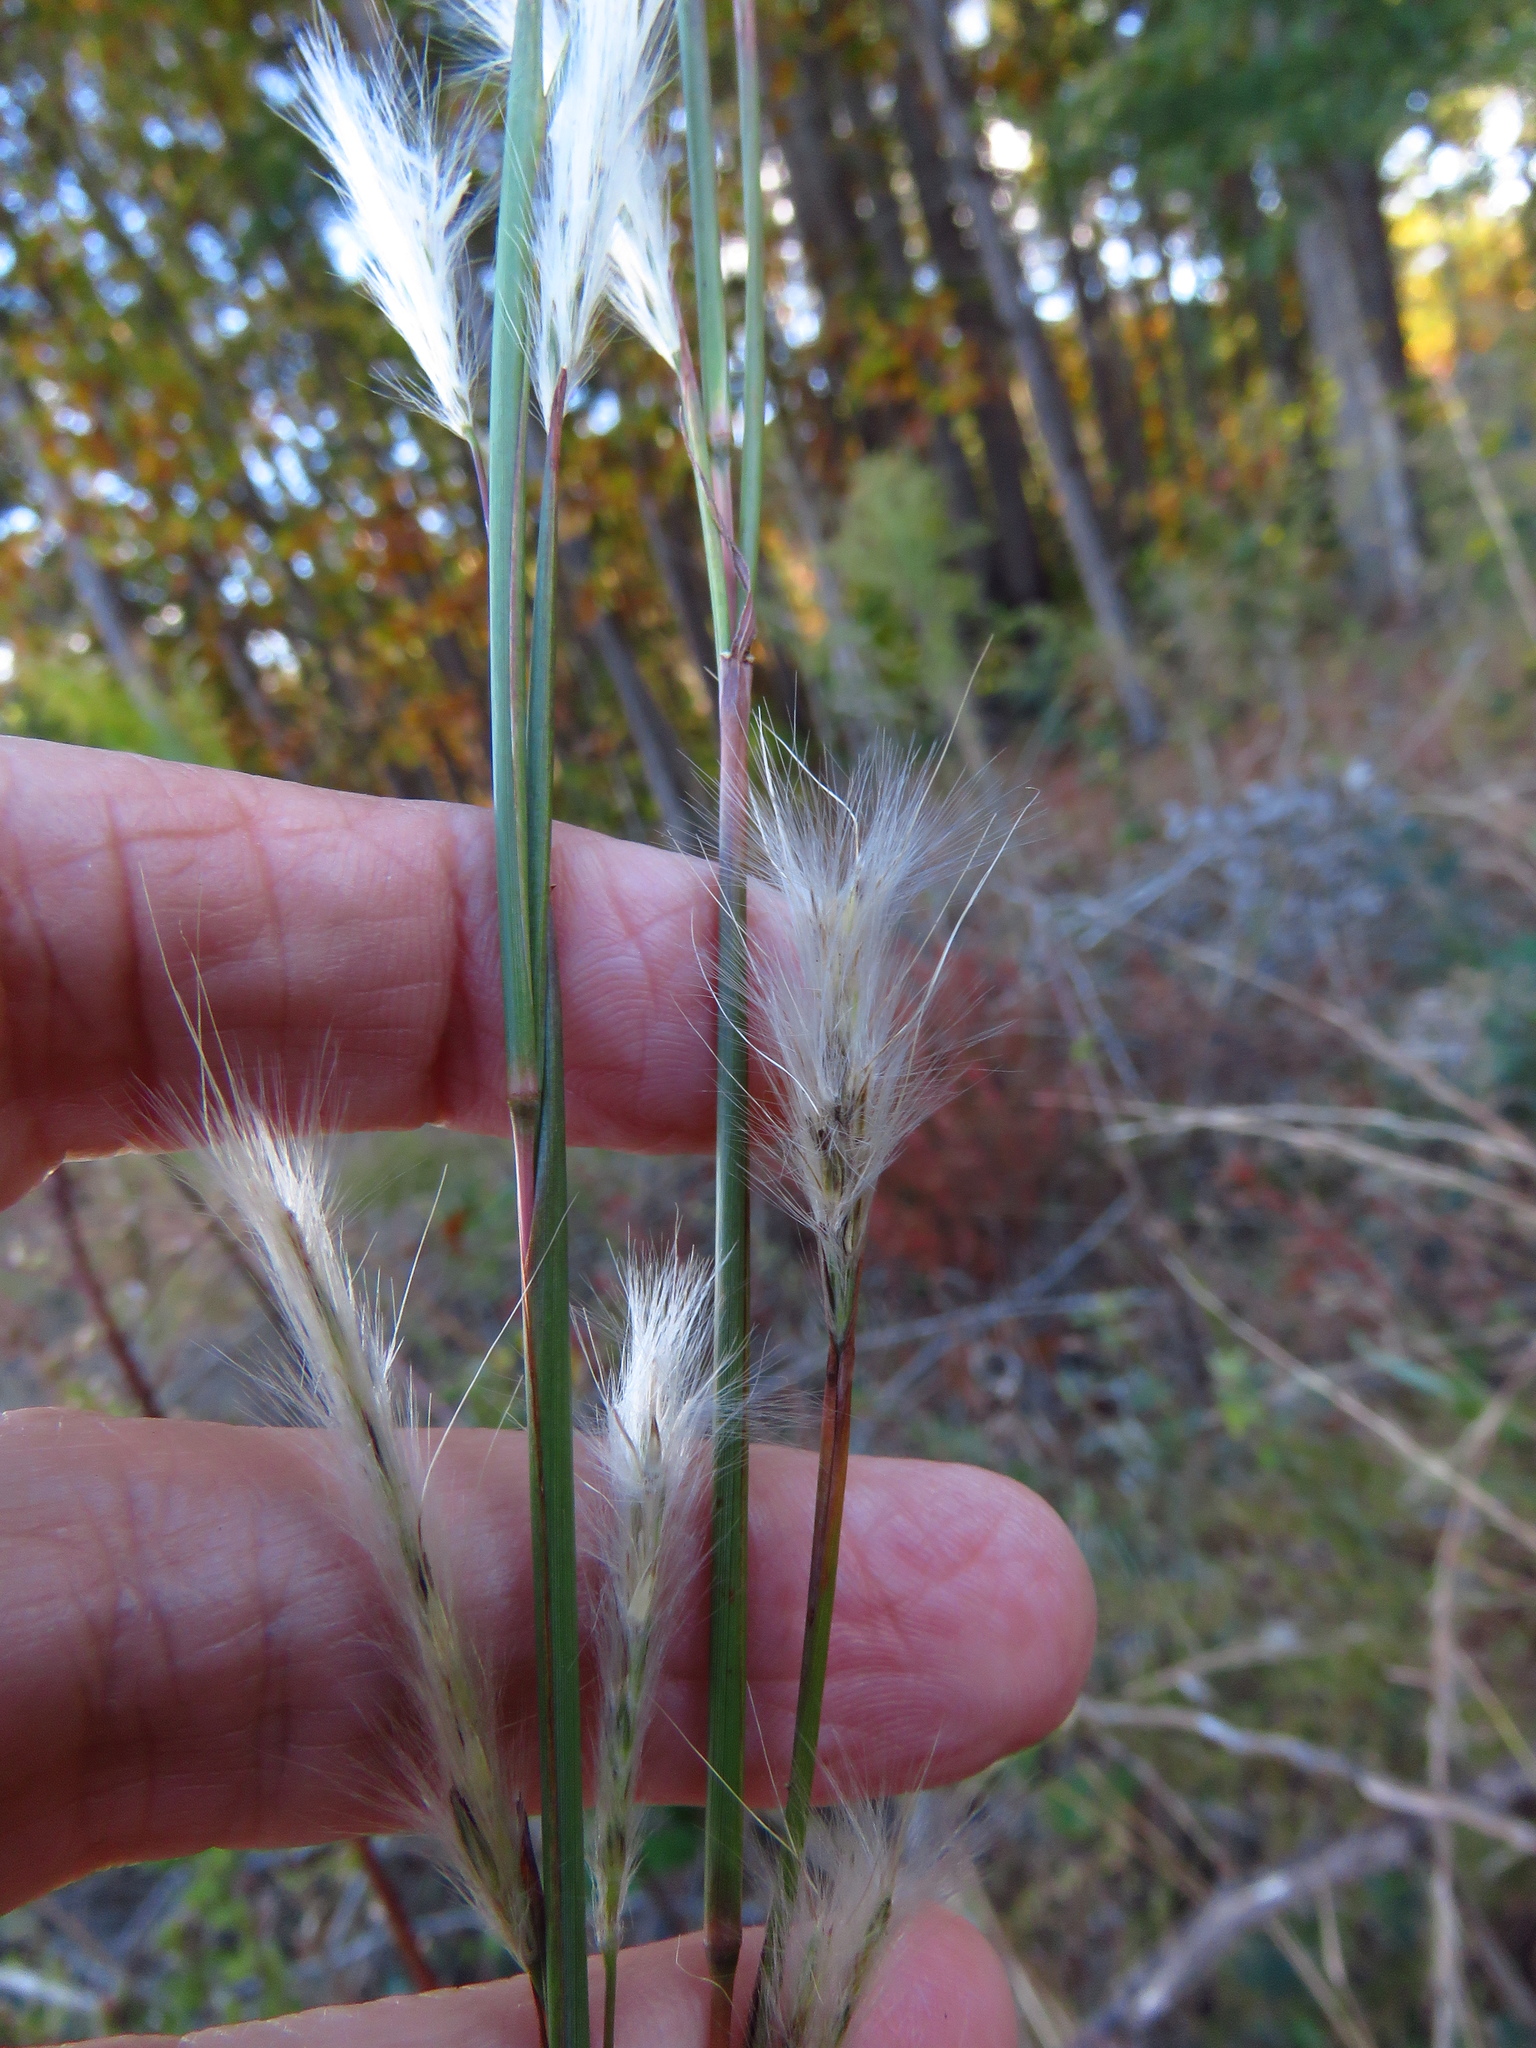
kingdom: Plantae
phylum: Tracheophyta
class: Liliopsida
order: Poales
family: Poaceae
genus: Andropogon
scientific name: Andropogon ternarius
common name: Split bluestem
